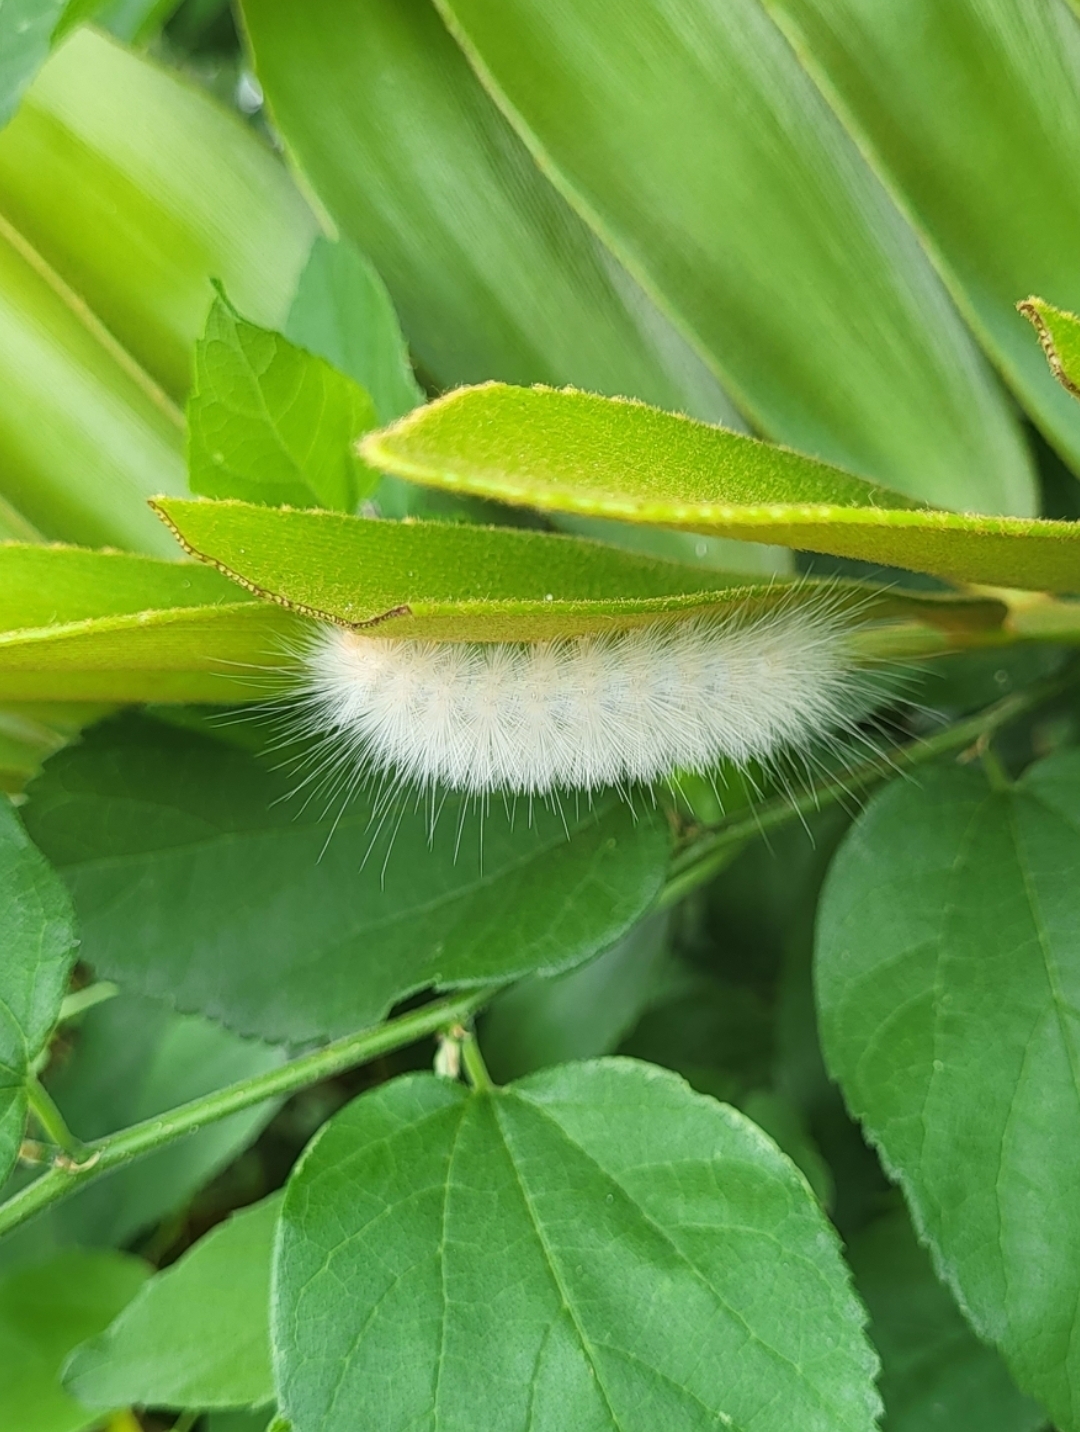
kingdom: Animalia
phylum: Arthropoda
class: Insecta
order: Lepidoptera
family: Erebidae
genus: Spilosoma
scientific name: Spilosoma virginica
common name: Virginia tiger moth
